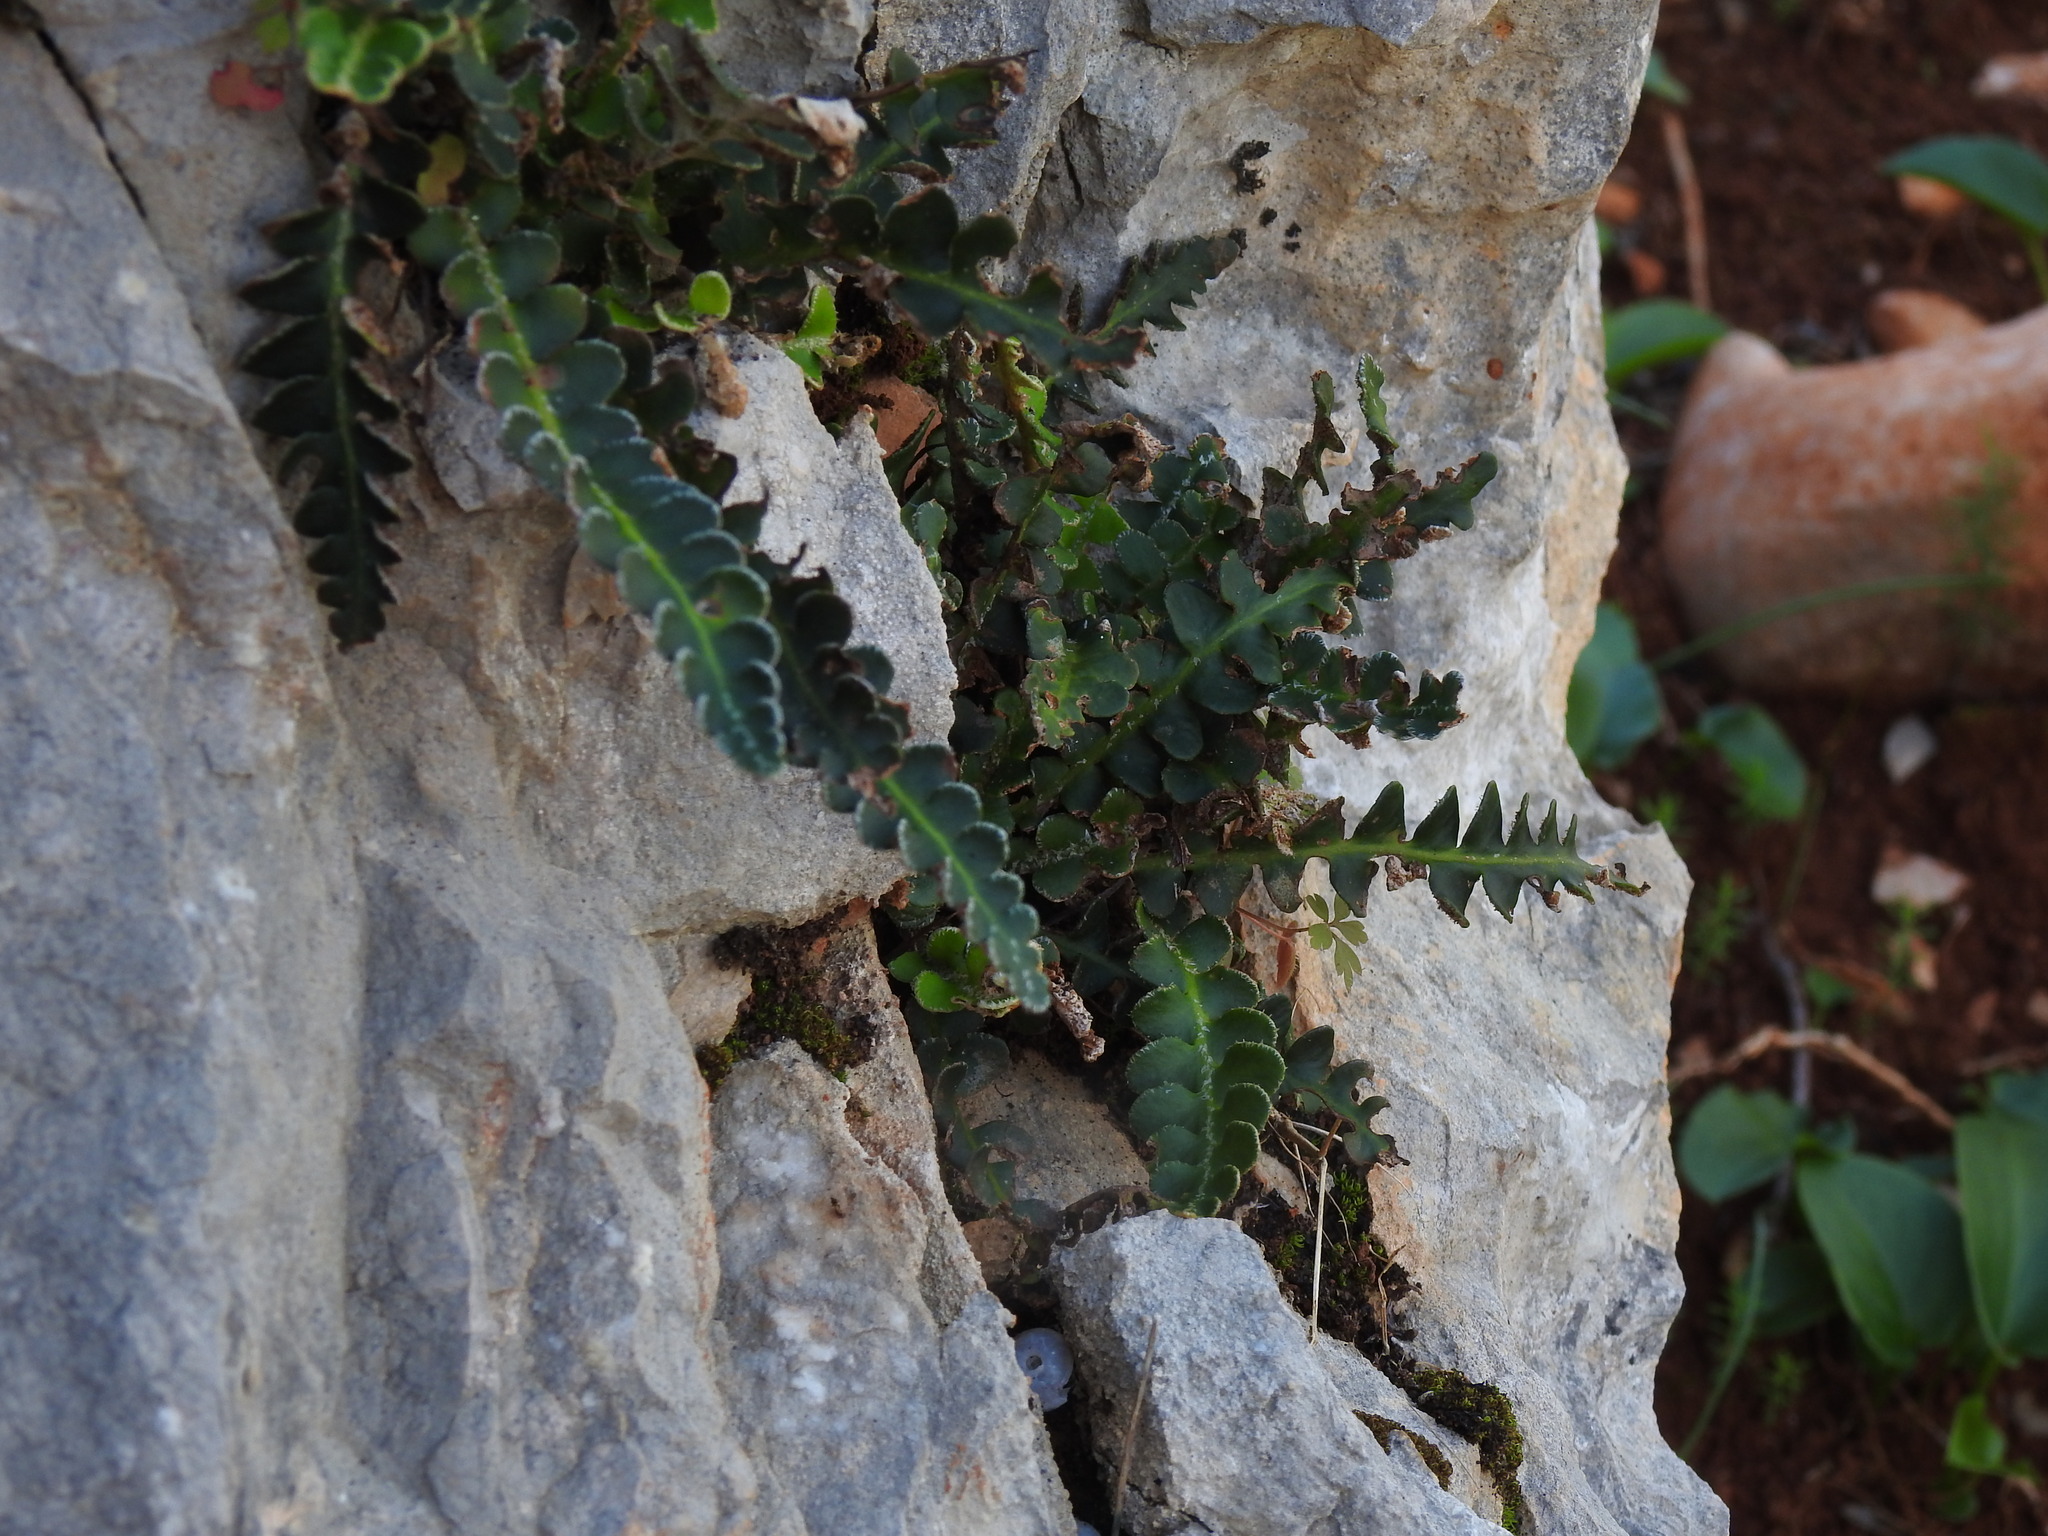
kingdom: Plantae
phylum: Tracheophyta
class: Polypodiopsida
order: Polypodiales
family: Aspleniaceae
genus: Asplenium
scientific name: Asplenium ceterach
